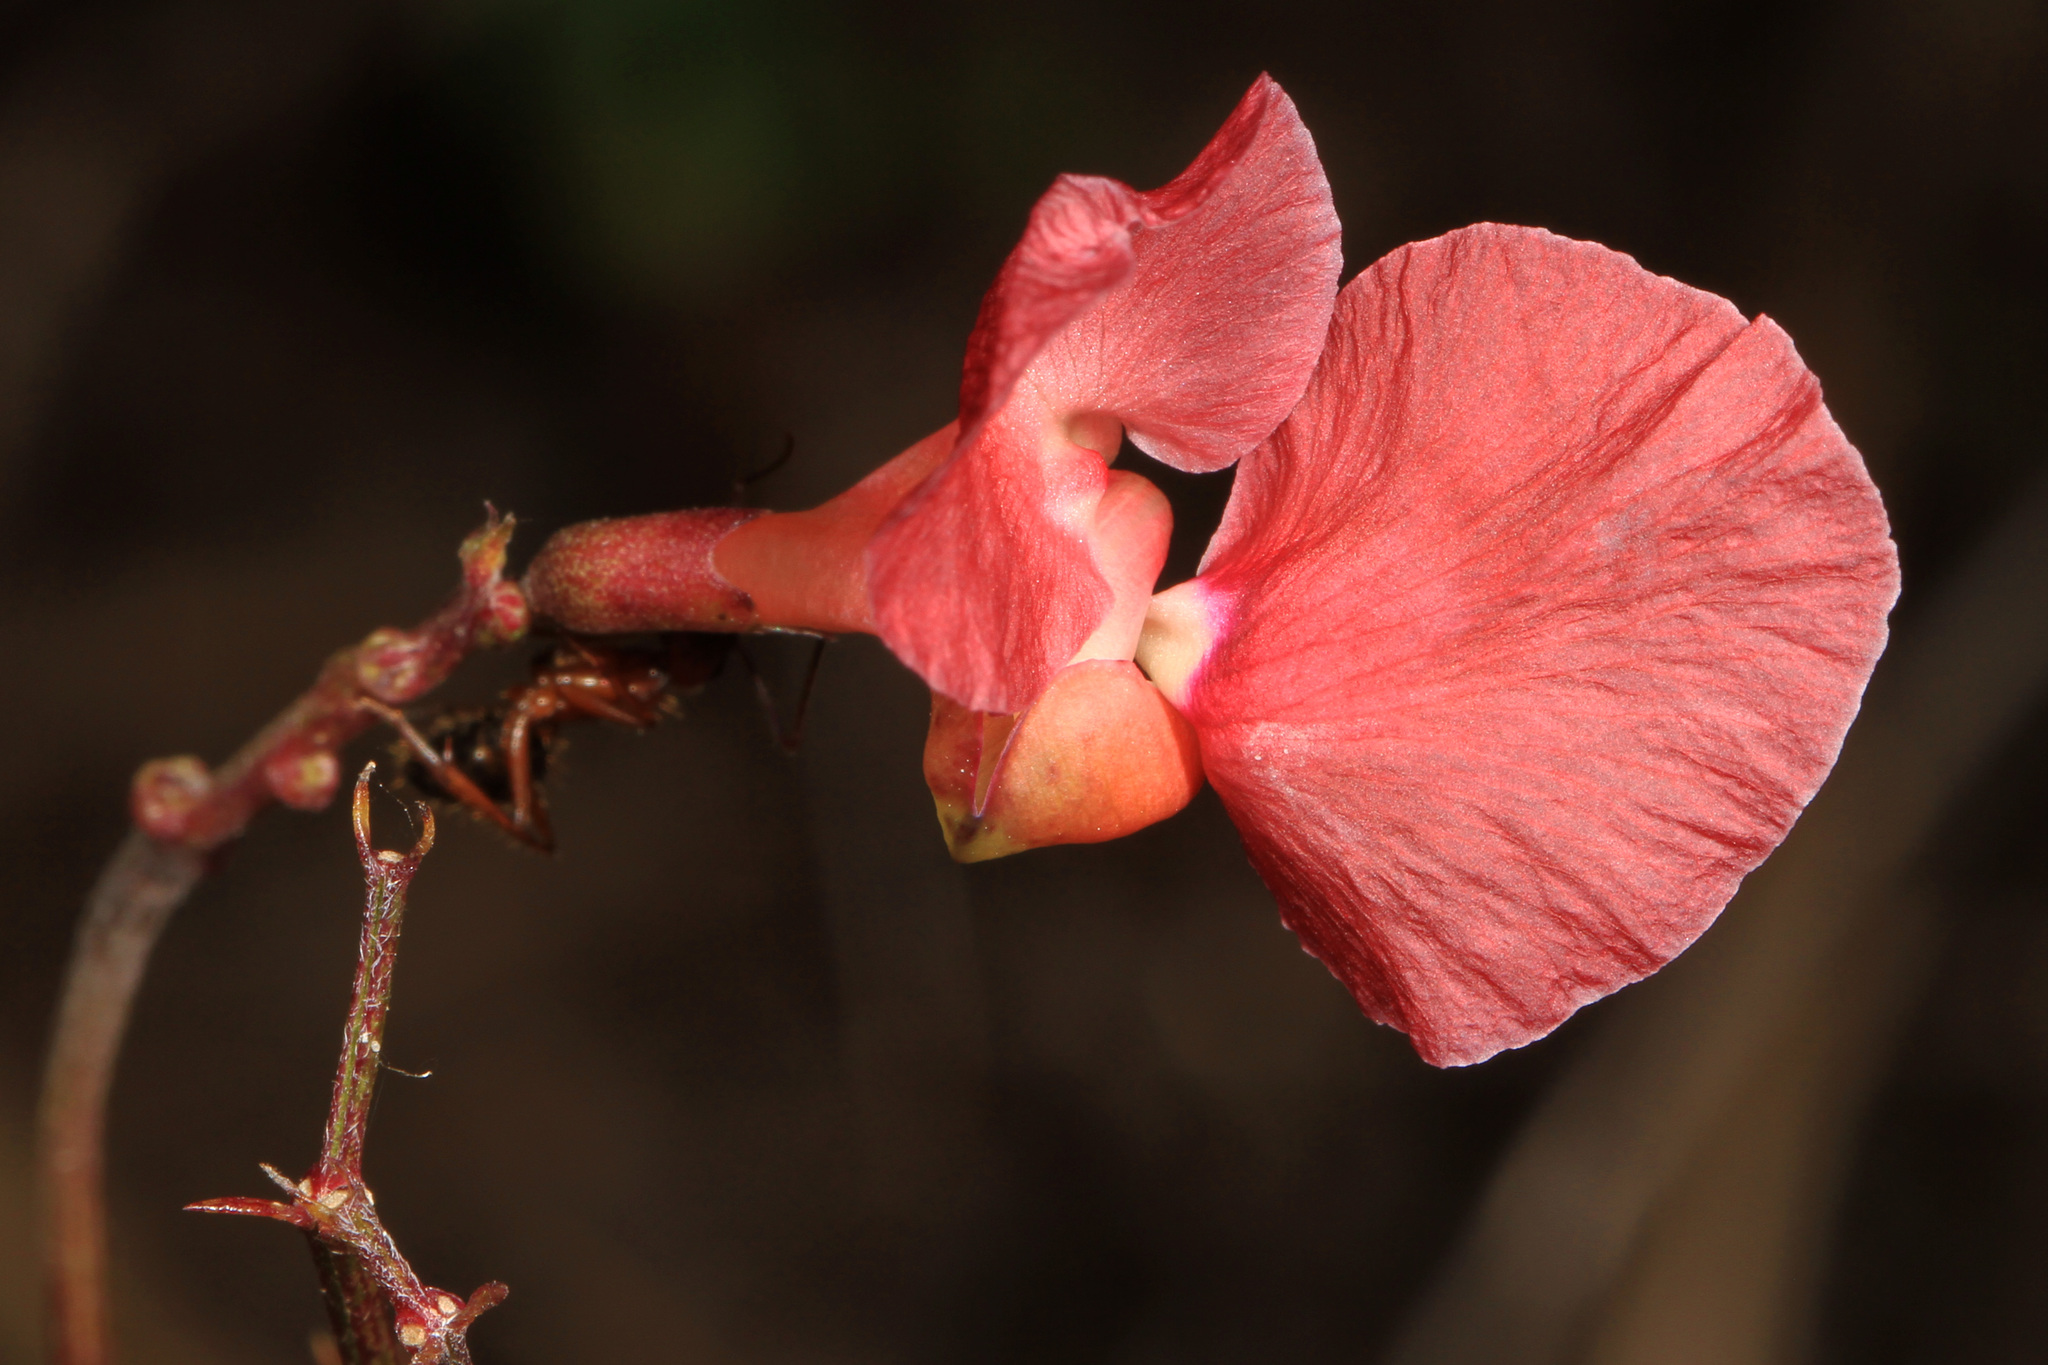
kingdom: Plantae
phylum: Tracheophyta
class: Magnoliopsida
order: Fabales
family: Fabaceae
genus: Macroptilium
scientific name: Macroptilium lathyroides
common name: Wild bushbean
